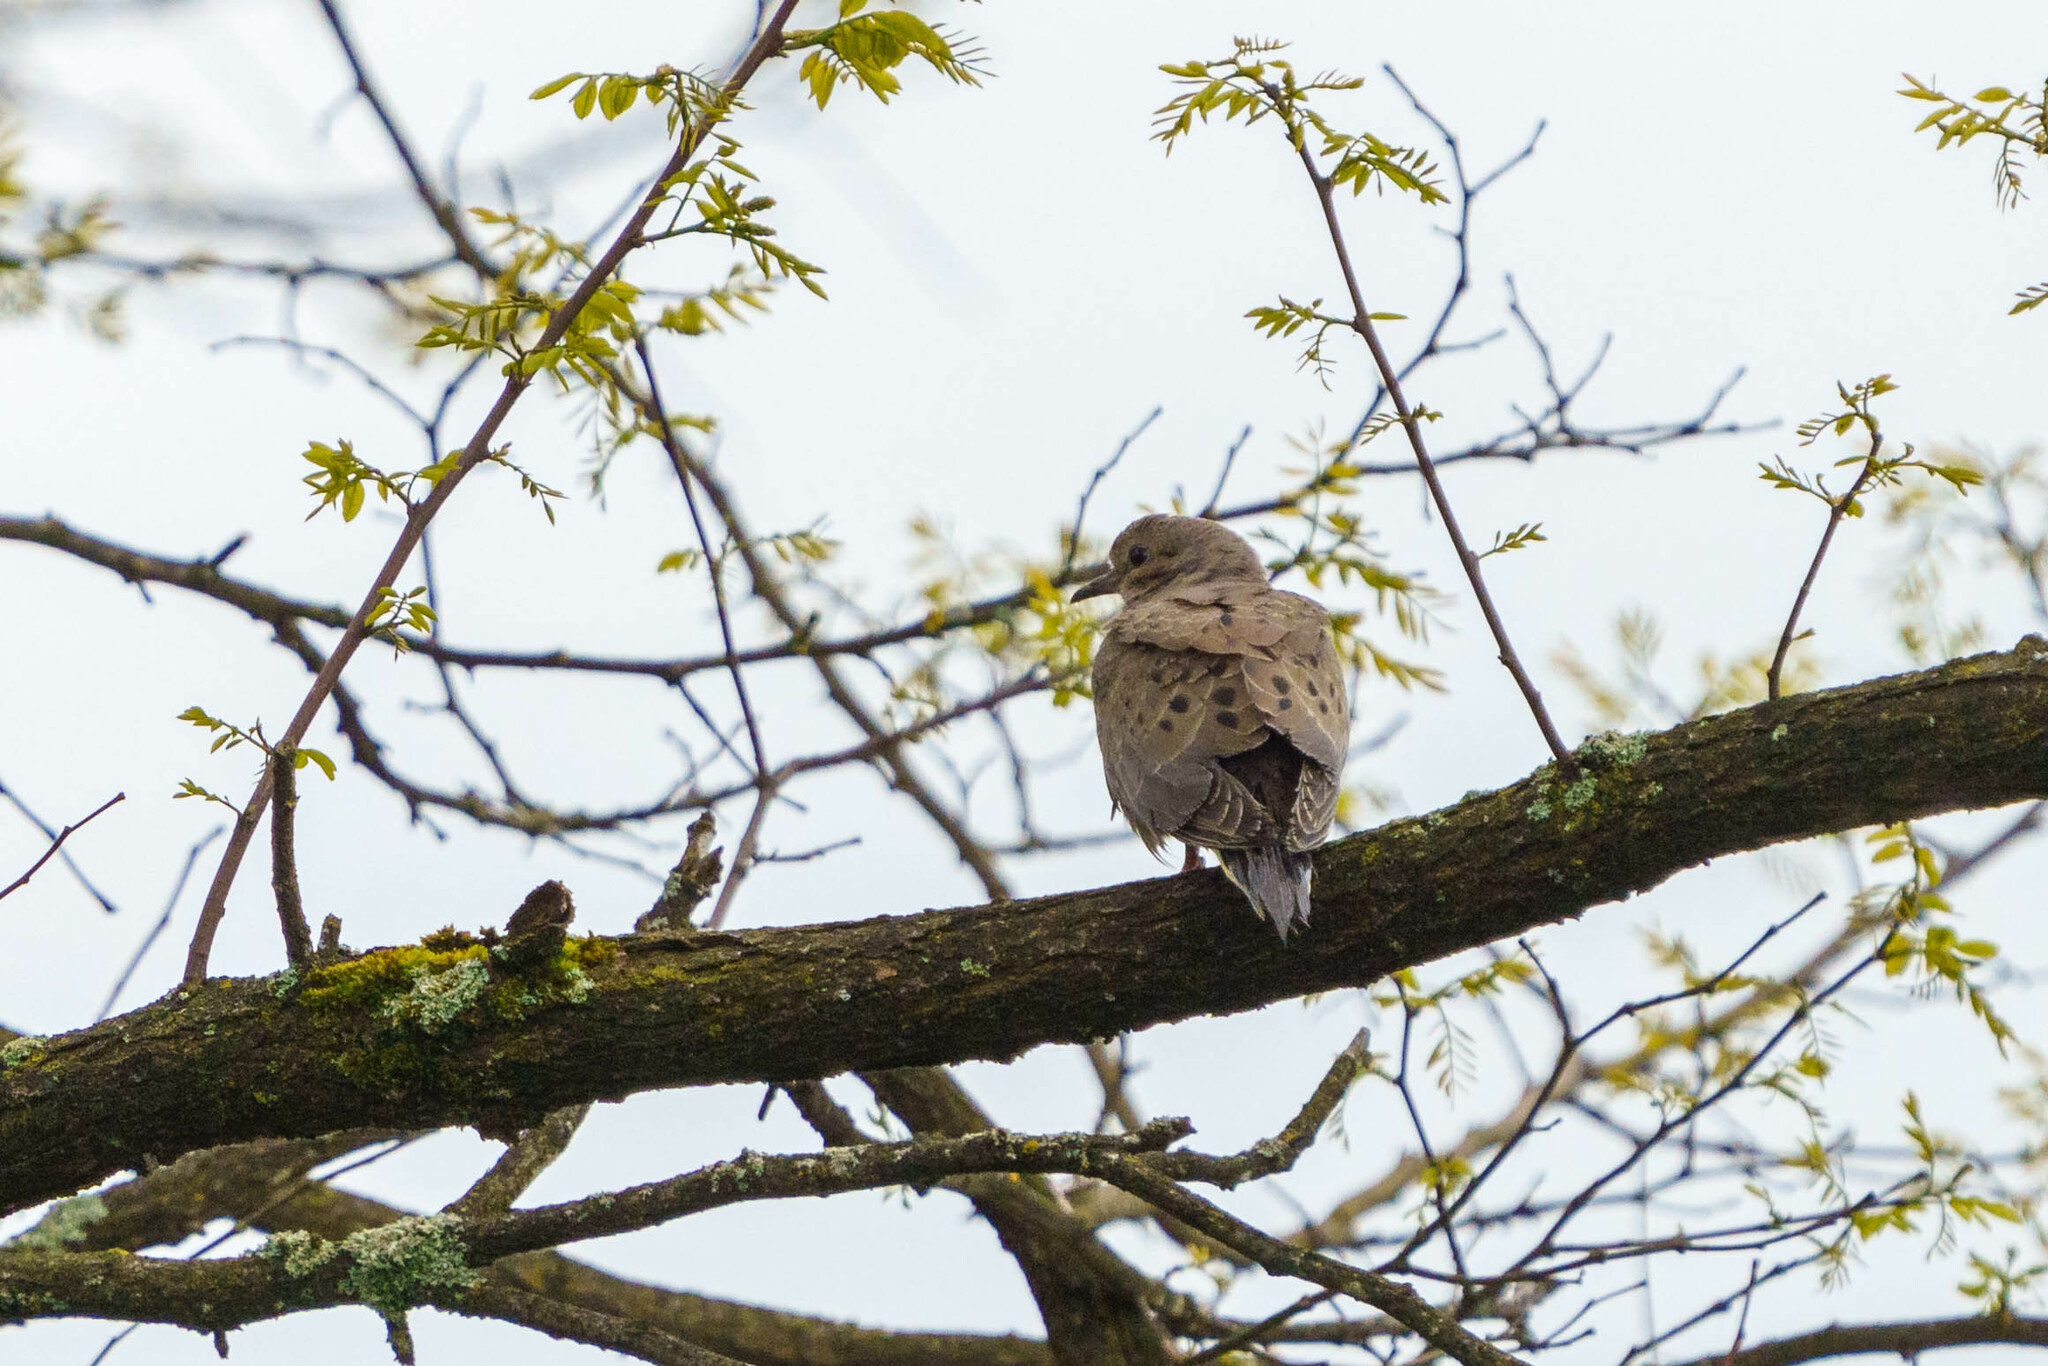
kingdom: Animalia
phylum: Chordata
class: Aves
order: Columbiformes
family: Columbidae
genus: Zenaida
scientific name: Zenaida macroura
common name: Mourning dove
